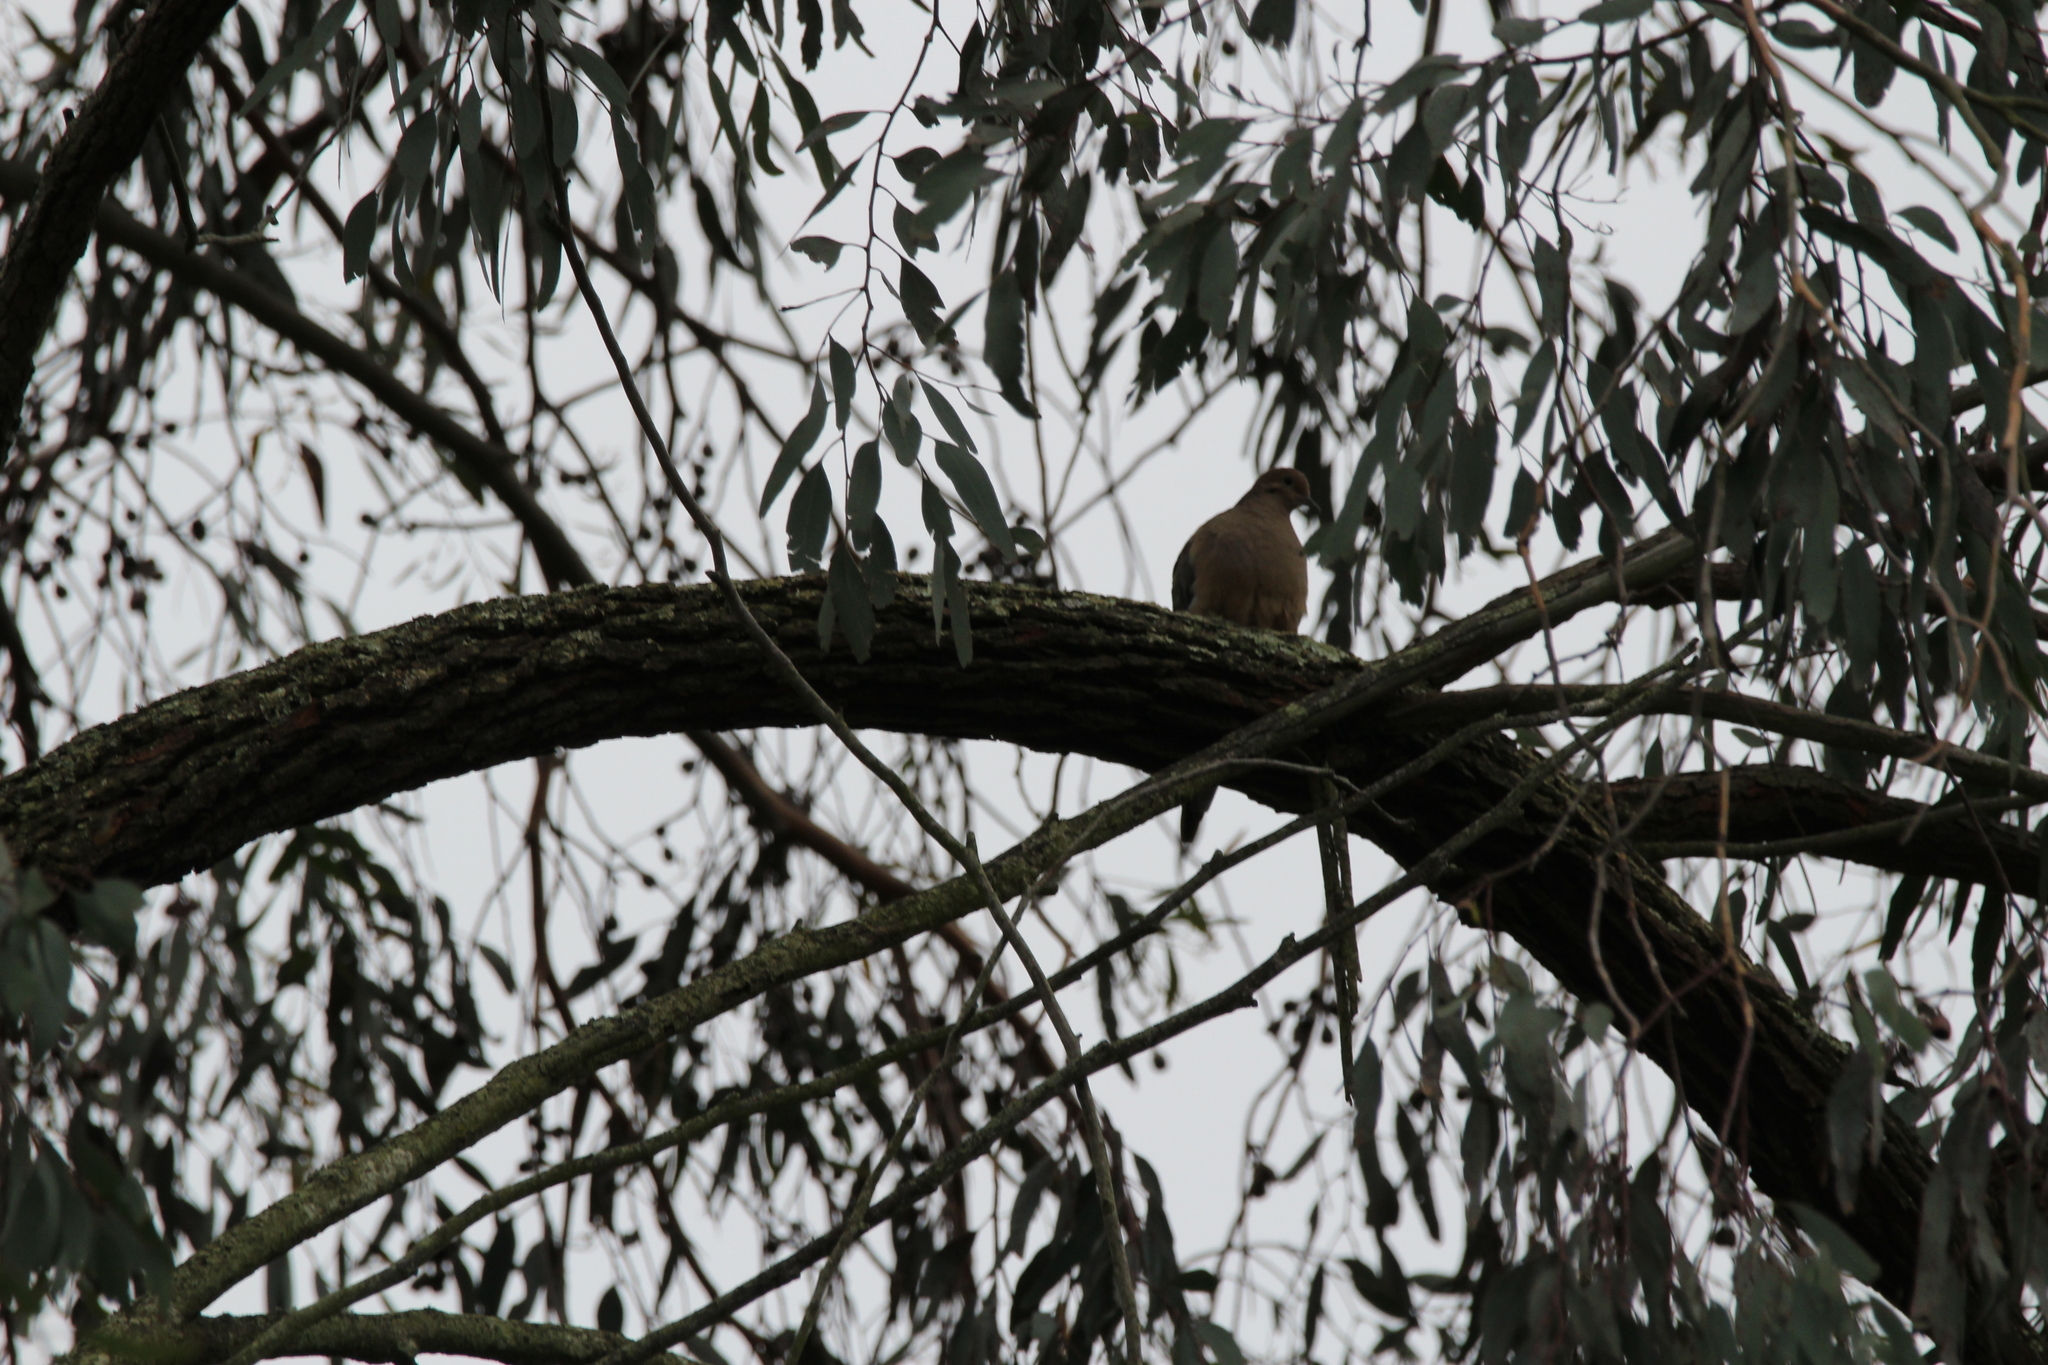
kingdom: Animalia
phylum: Chordata
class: Aves
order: Columbiformes
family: Columbidae
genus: Zenaida
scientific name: Zenaida macroura
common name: Mourning dove
